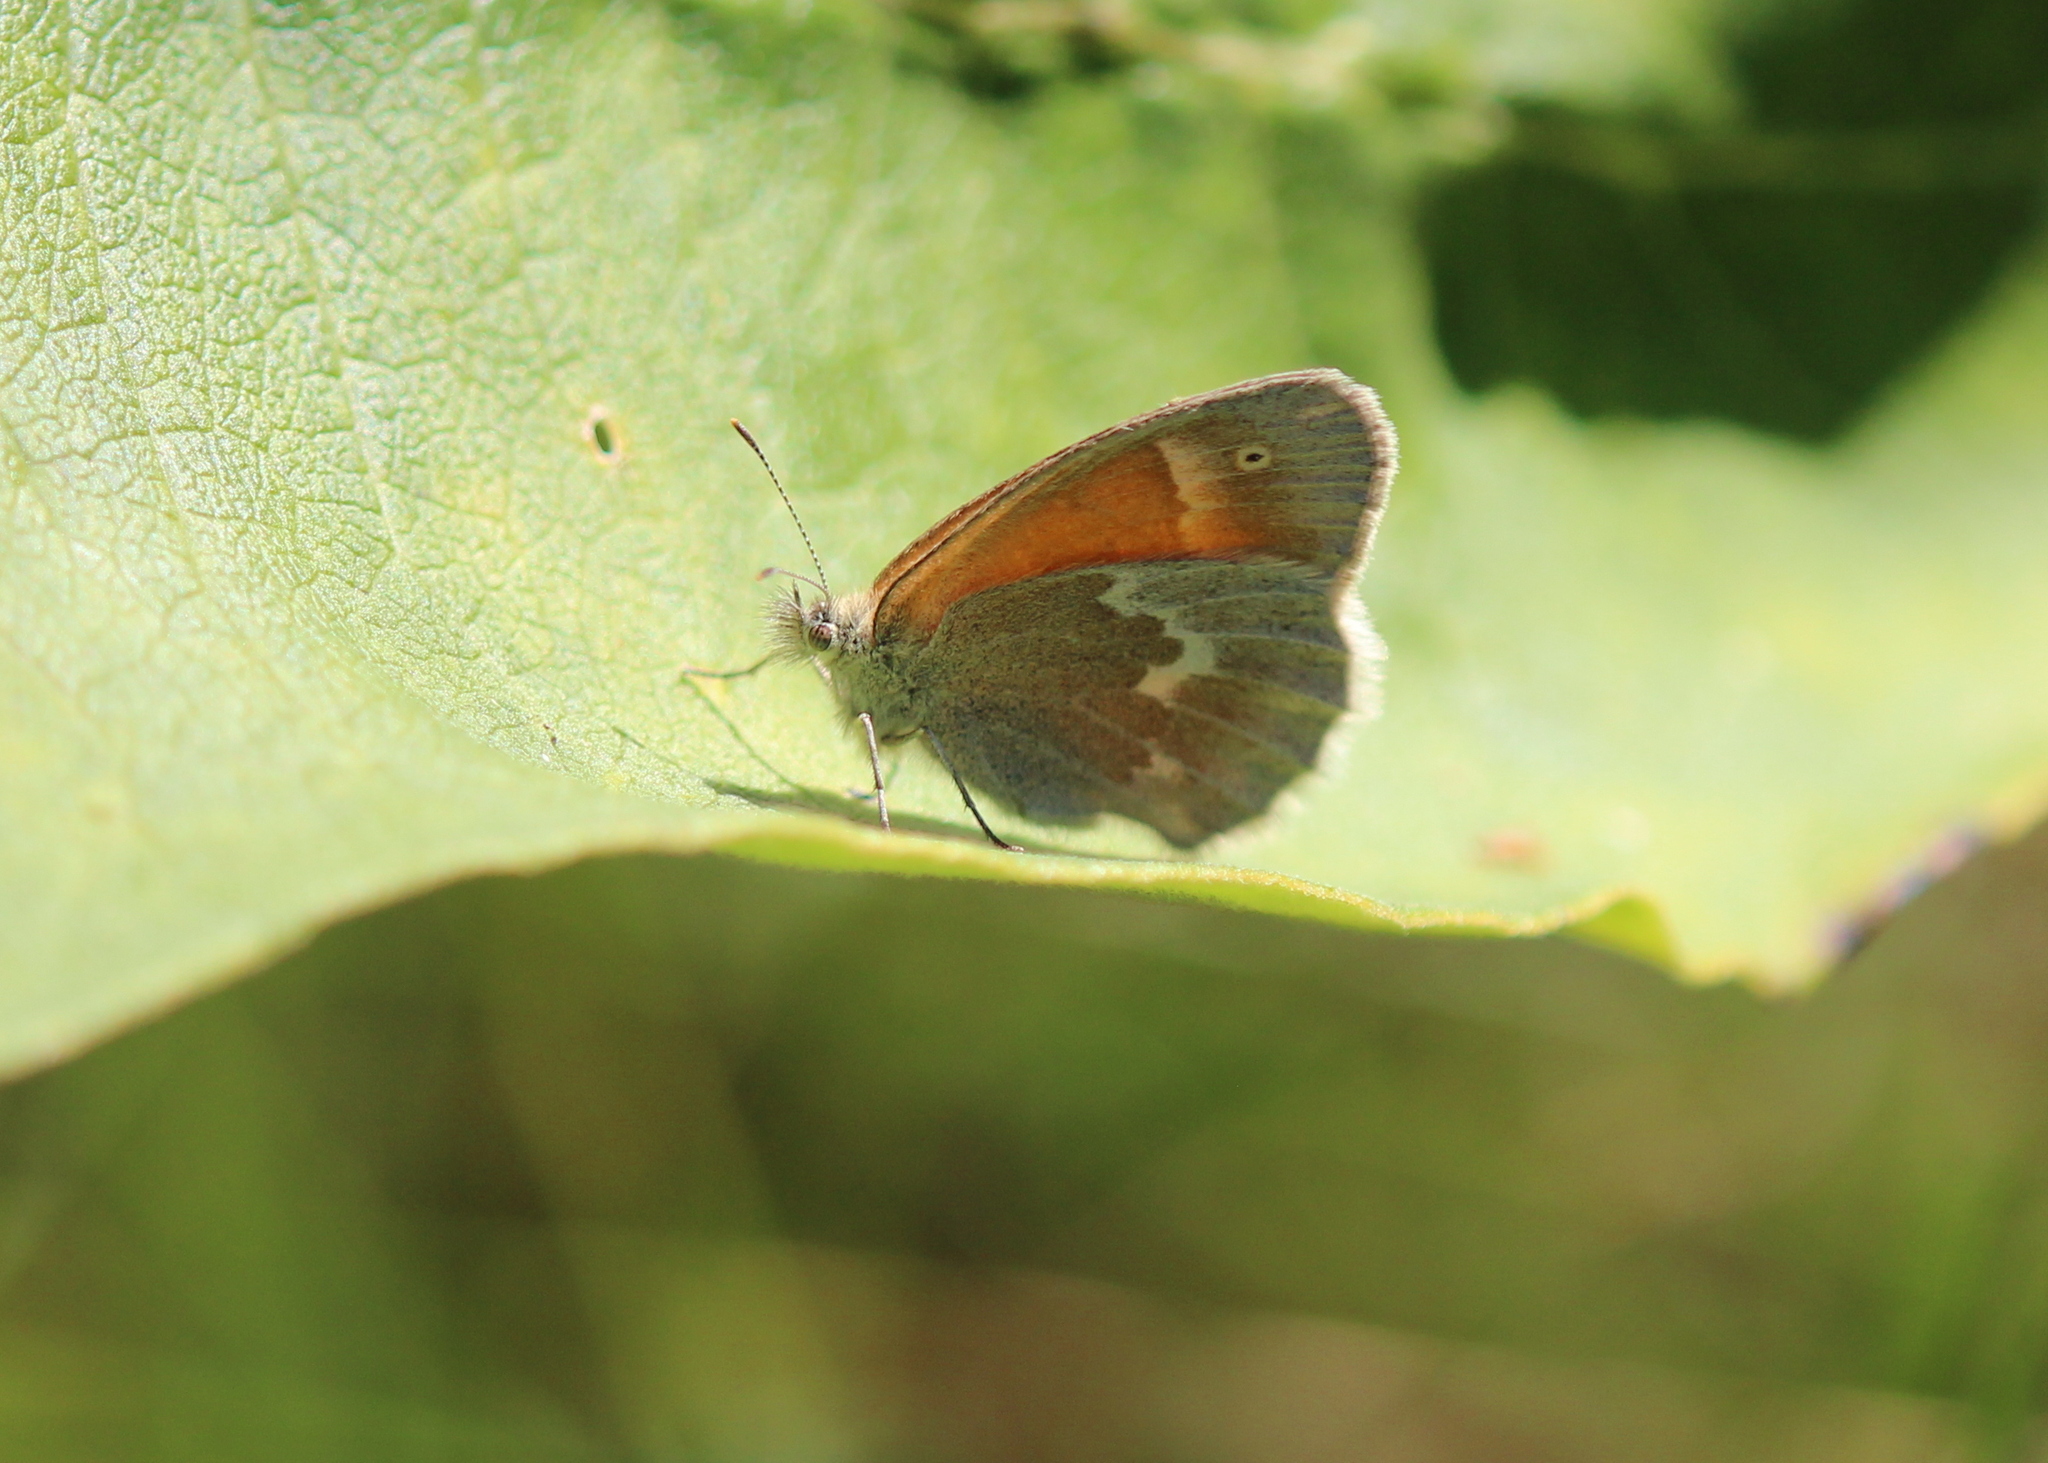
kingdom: Animalia
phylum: Arthropoda
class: Insecta
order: Lepidoptera
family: Nymphalidae
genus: Coenonympha
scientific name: Coenonympha california
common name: Common ringlet
